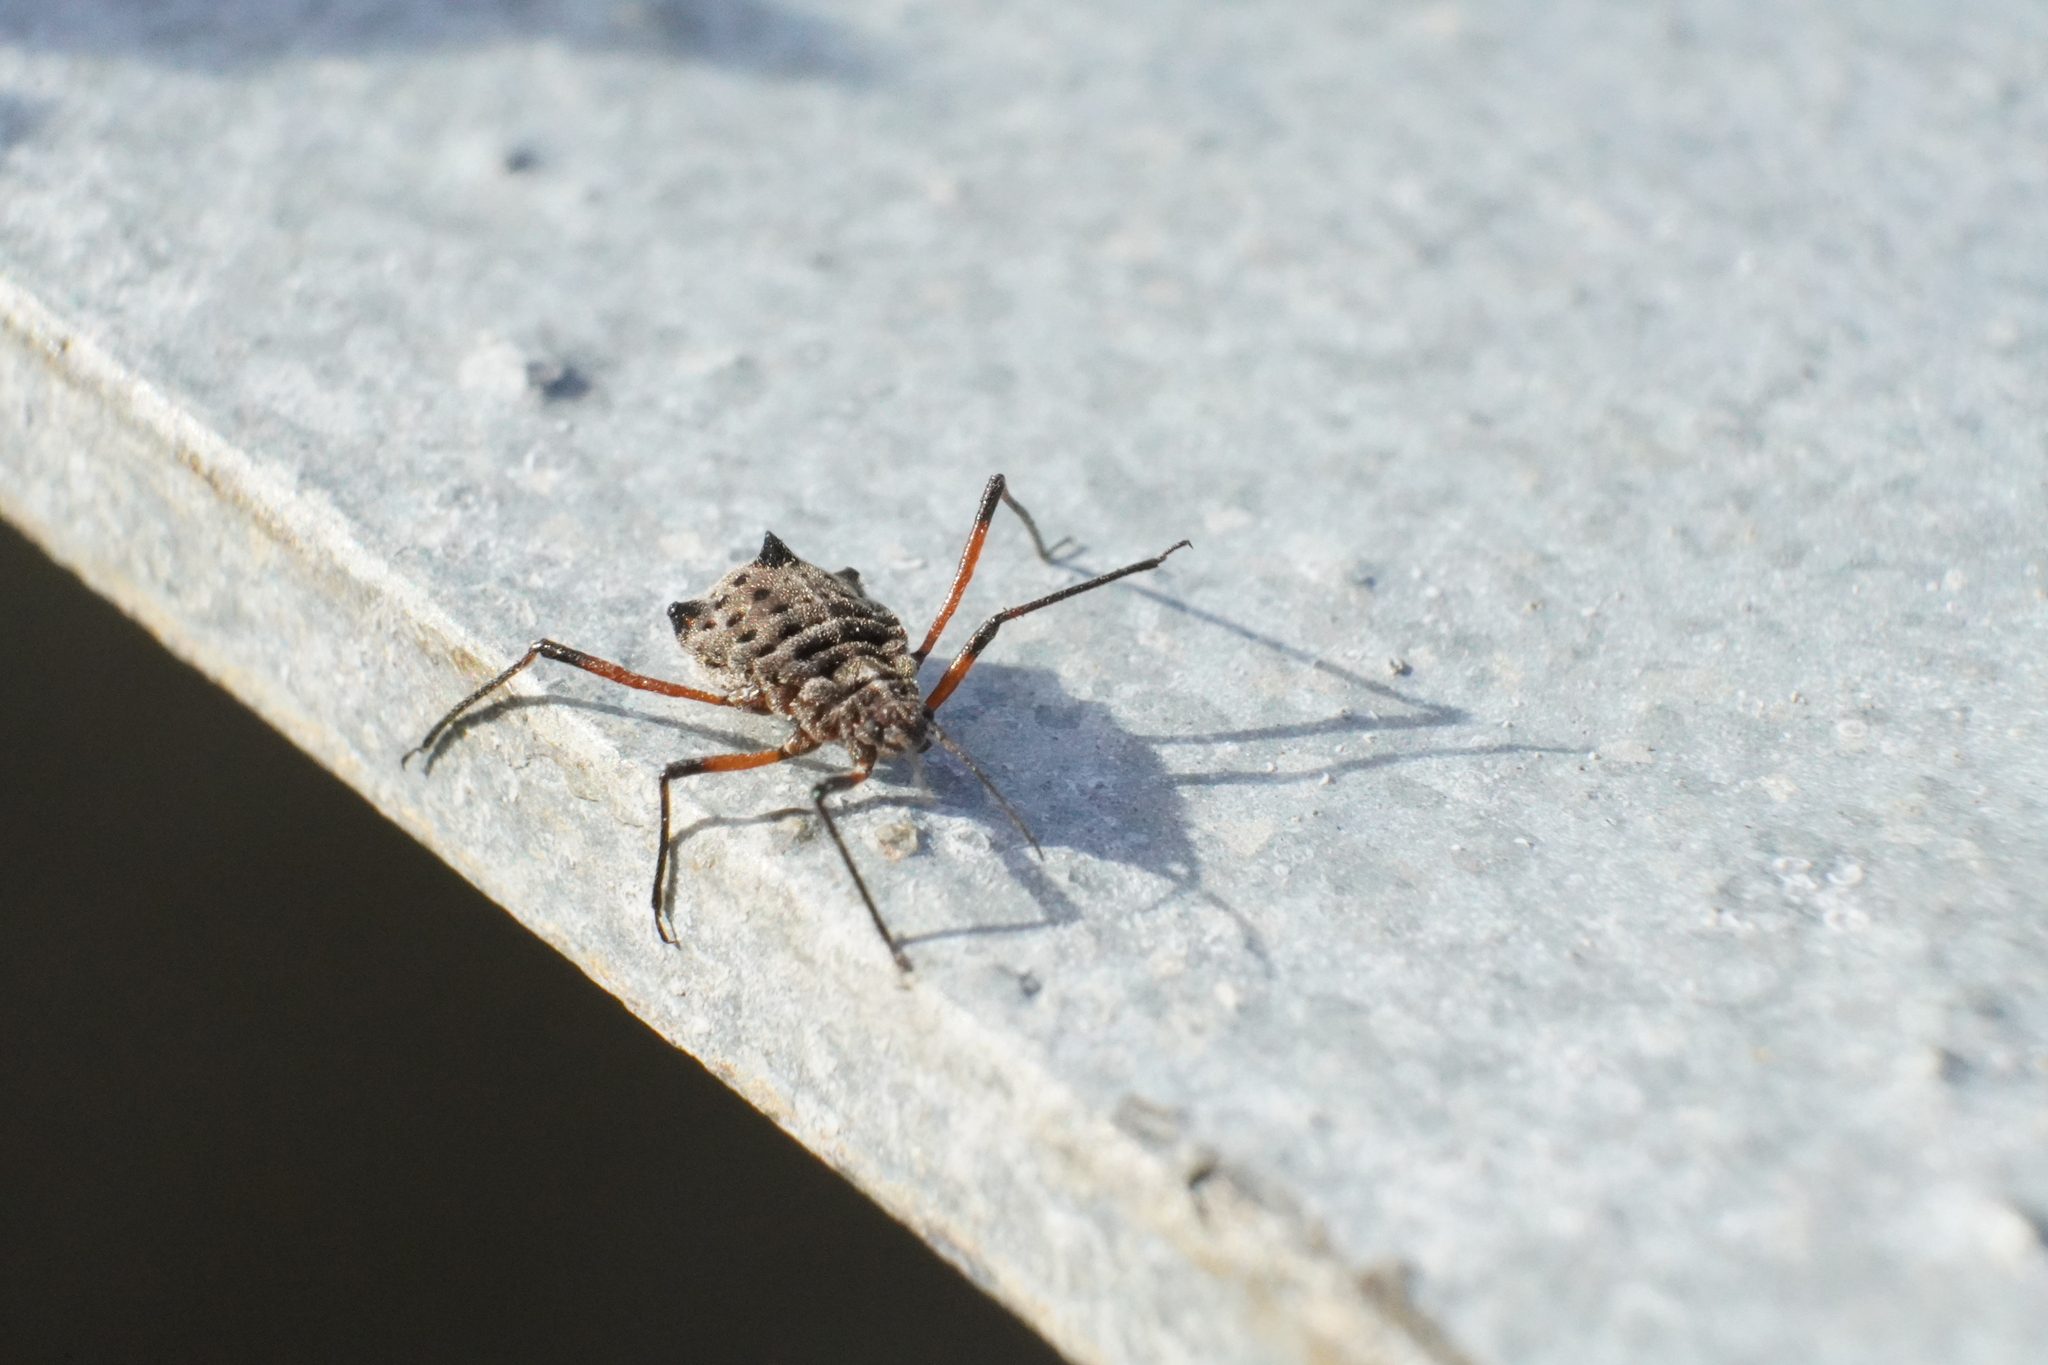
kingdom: Animalia
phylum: Arthropoda
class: Insecta
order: Hemiptera
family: Aphididae
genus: Tuberolachnus
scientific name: Tuberolachnus salignus
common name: Giant willow aphid
